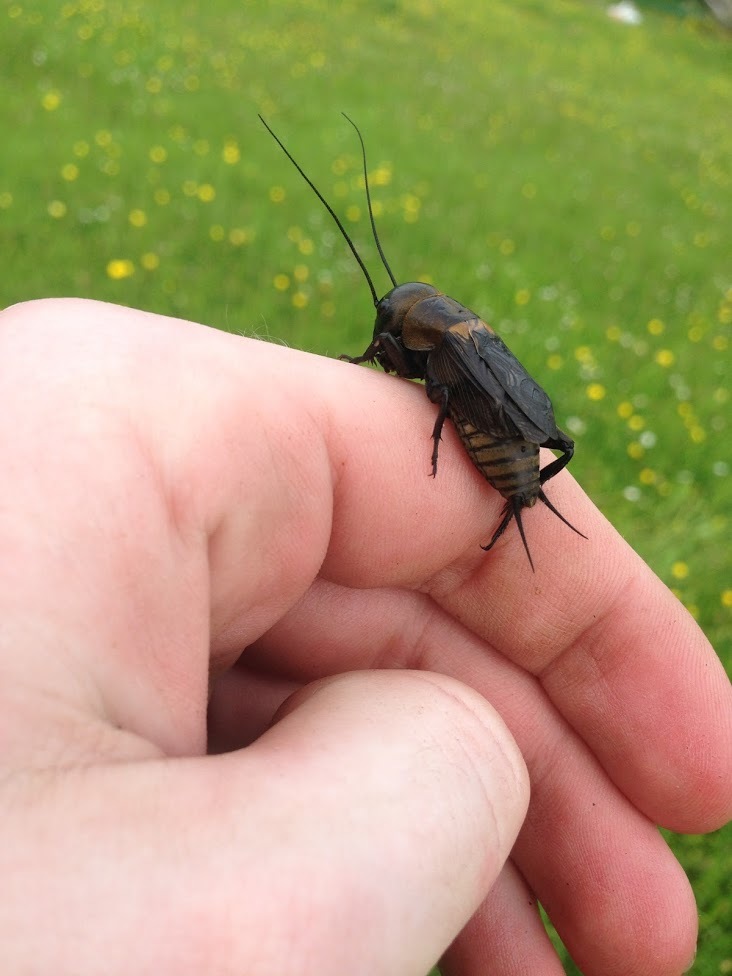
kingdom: Animalia
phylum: Arthropoda
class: Insecta
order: Orthoptera
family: Gryllidae
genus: Gryllus
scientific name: Gryllus campestris
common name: Field cricket
